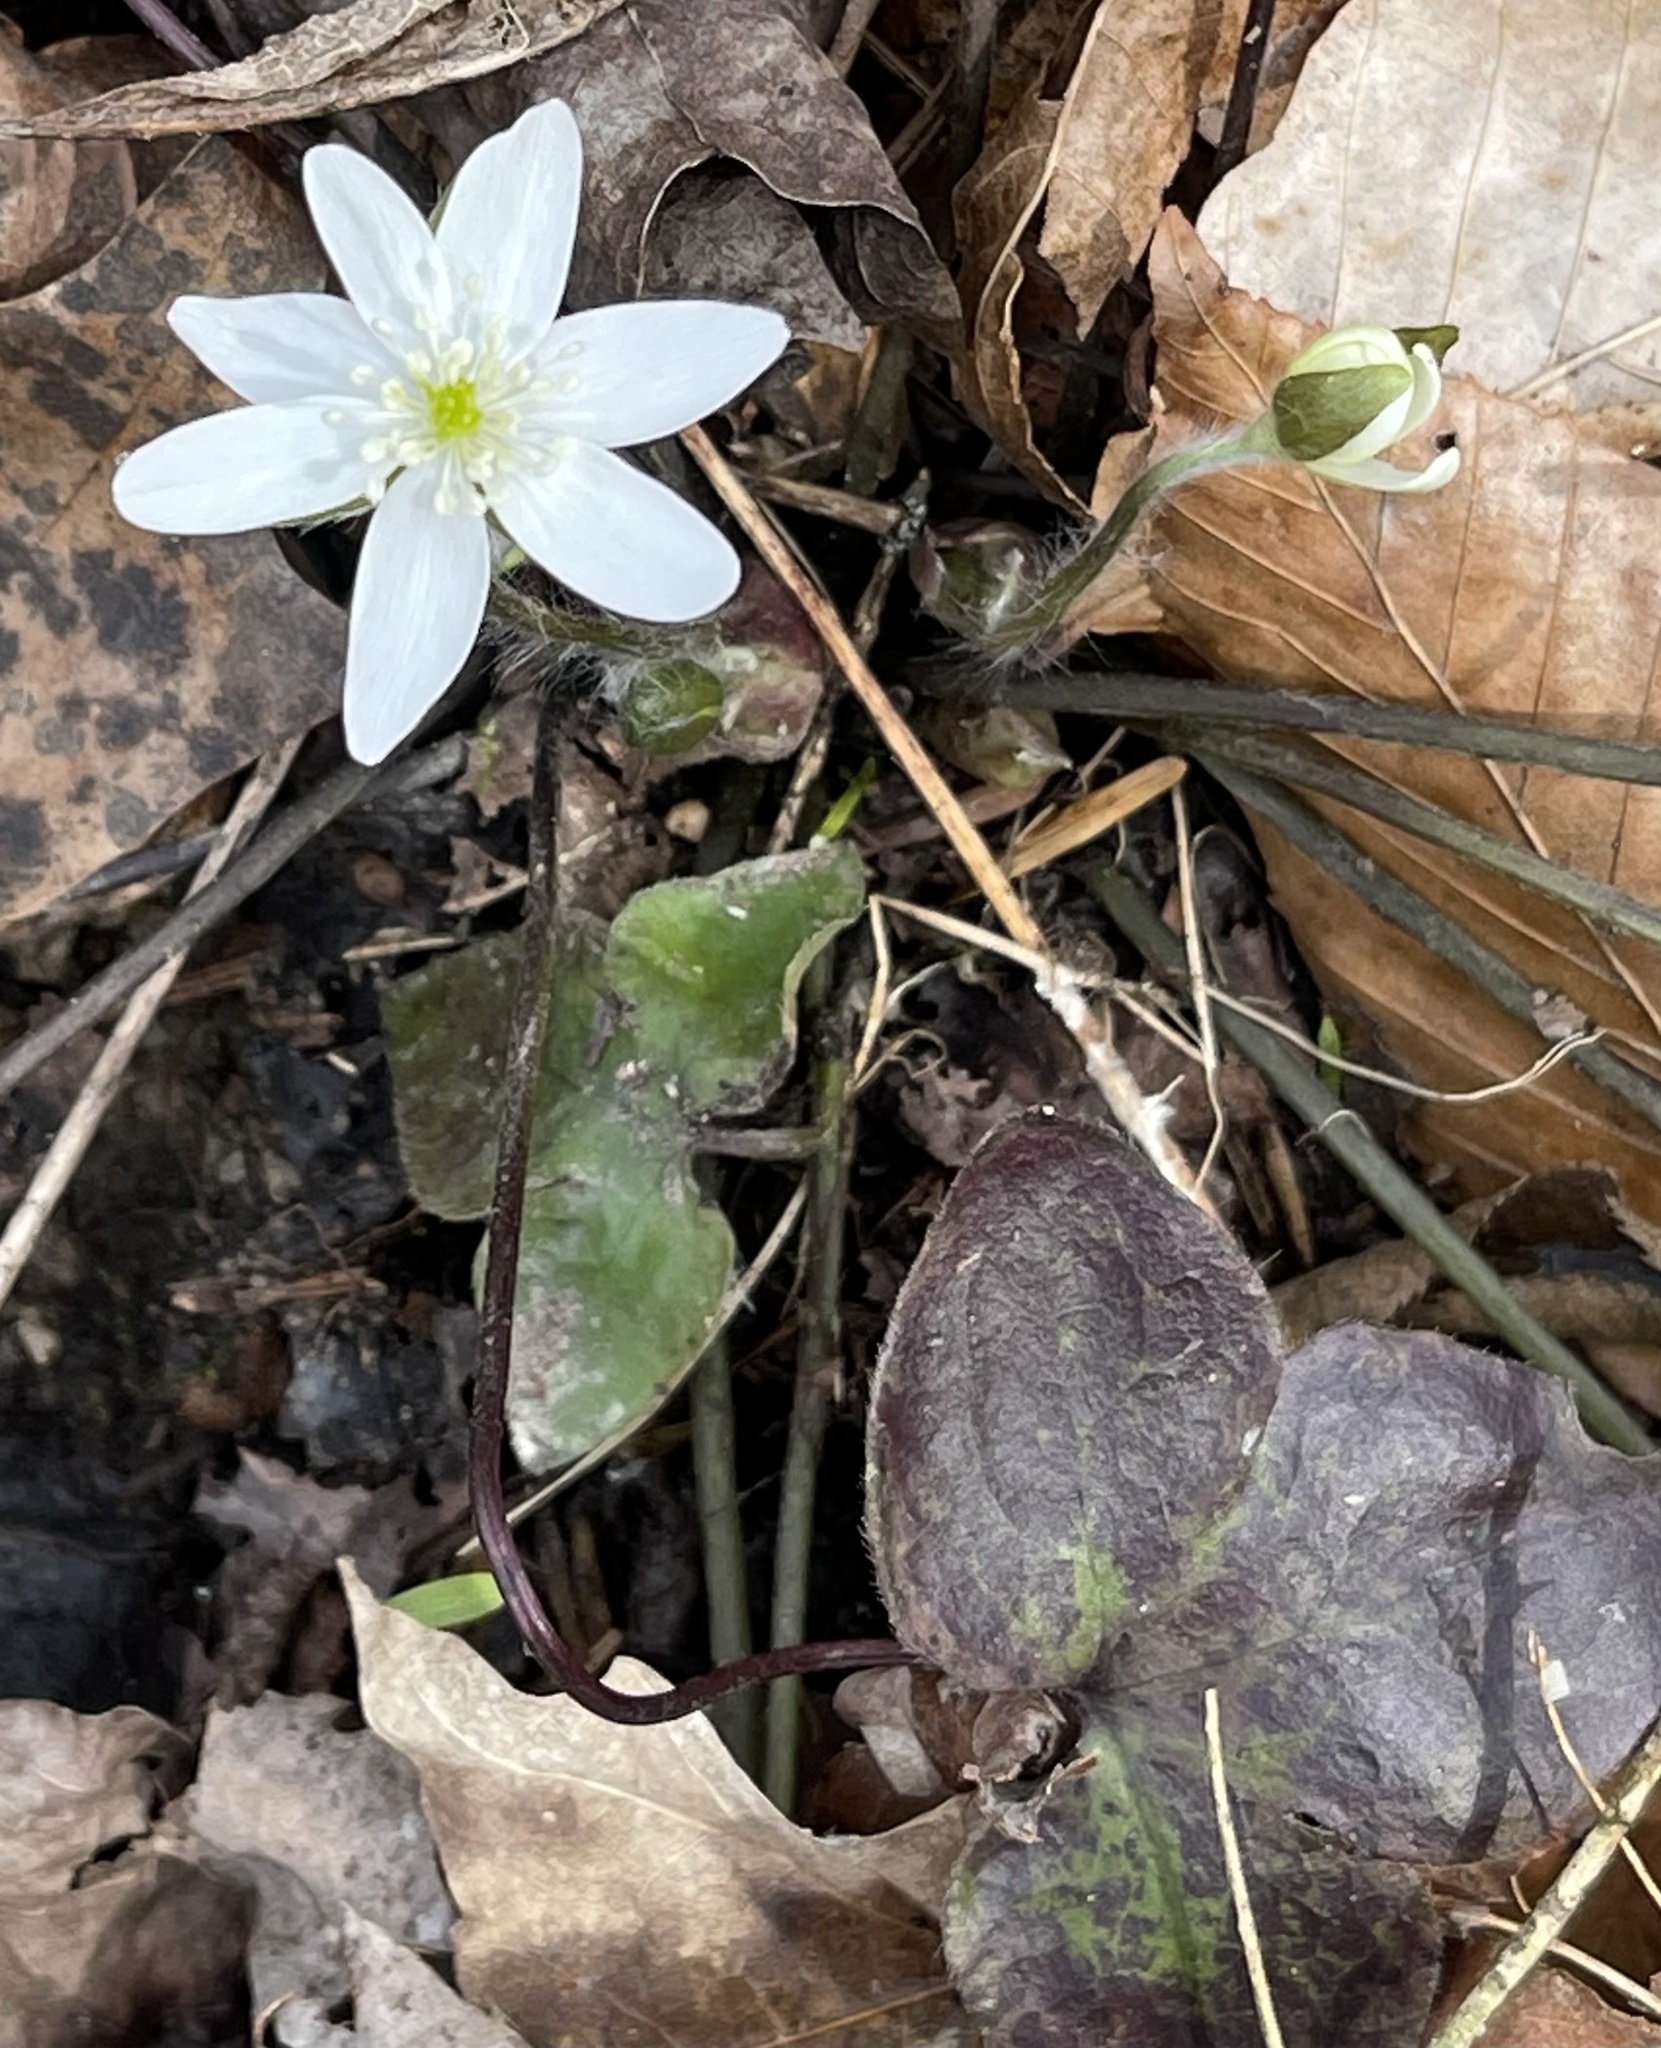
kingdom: Plantae
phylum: Tracheophyta
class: Magnoliopsida
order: Ranunculales
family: Ranunculaceae
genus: Hepatica
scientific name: Hepatica acutiloba
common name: Sharp-lobed hepatica
